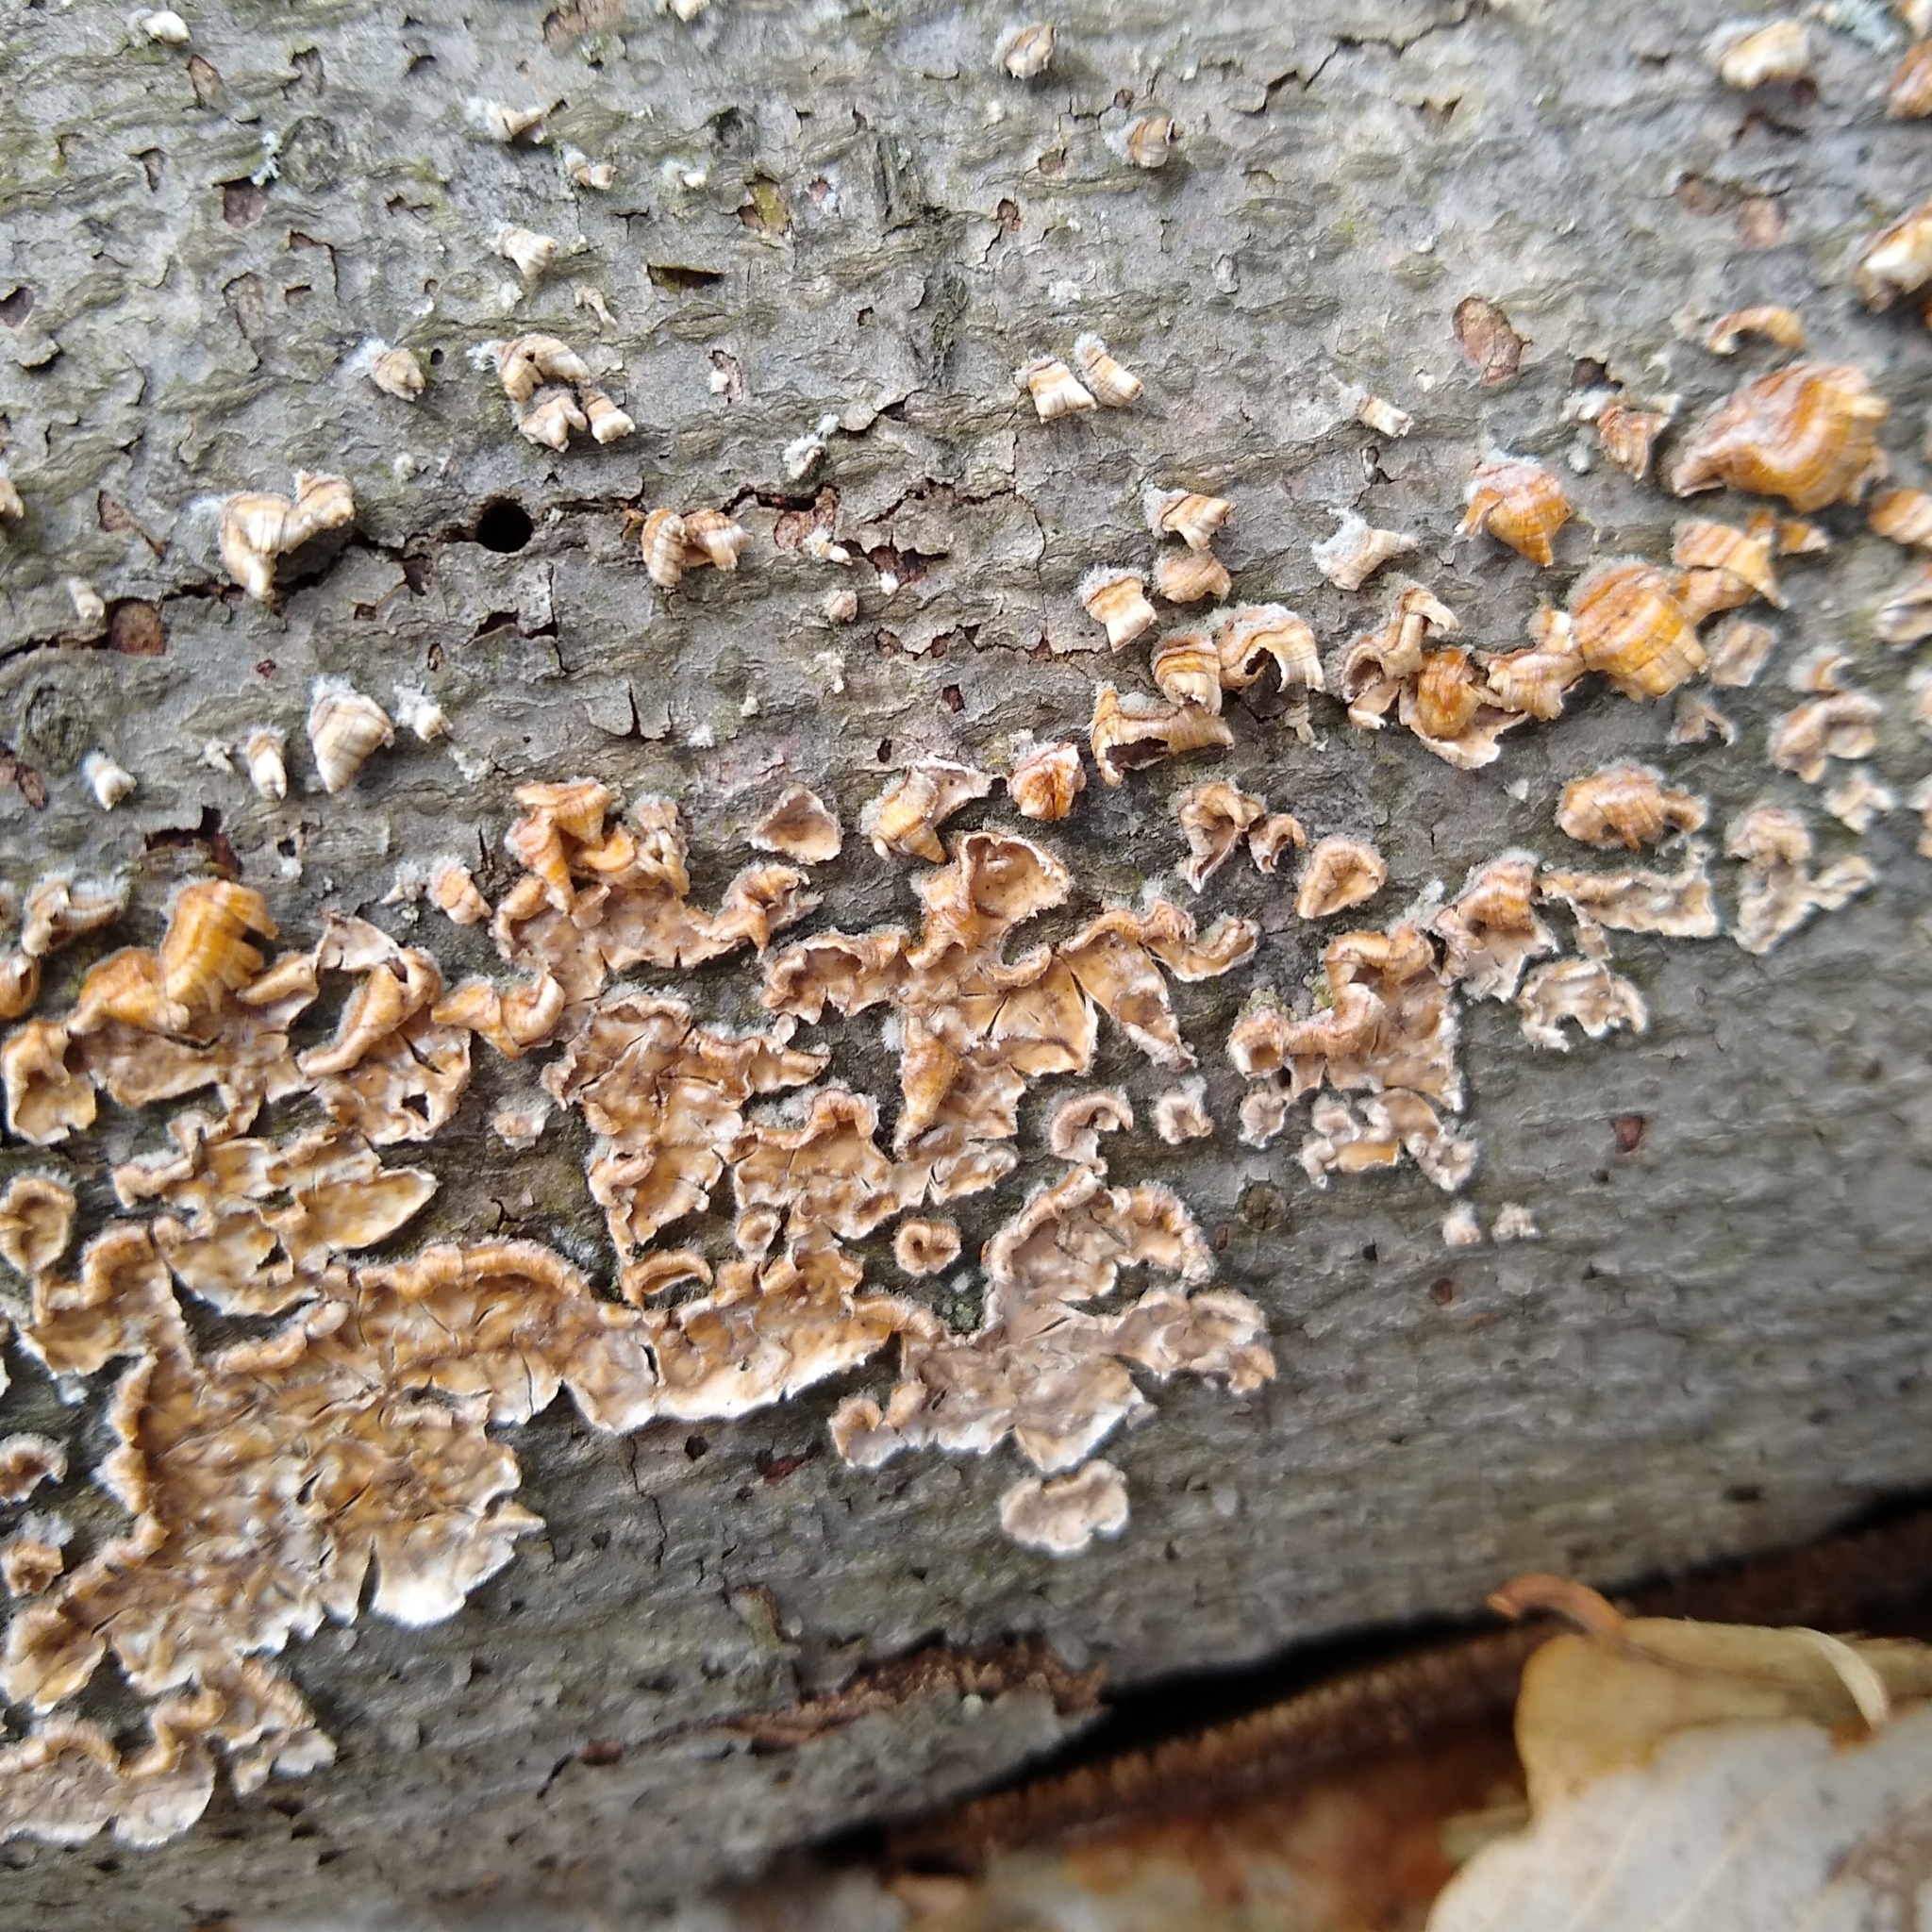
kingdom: Fungi
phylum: Basidiomycota
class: Agaricomycetes
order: Russulales
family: Stereaceae
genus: Stereum
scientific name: Stereum complicatum
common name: Crowded parchment
